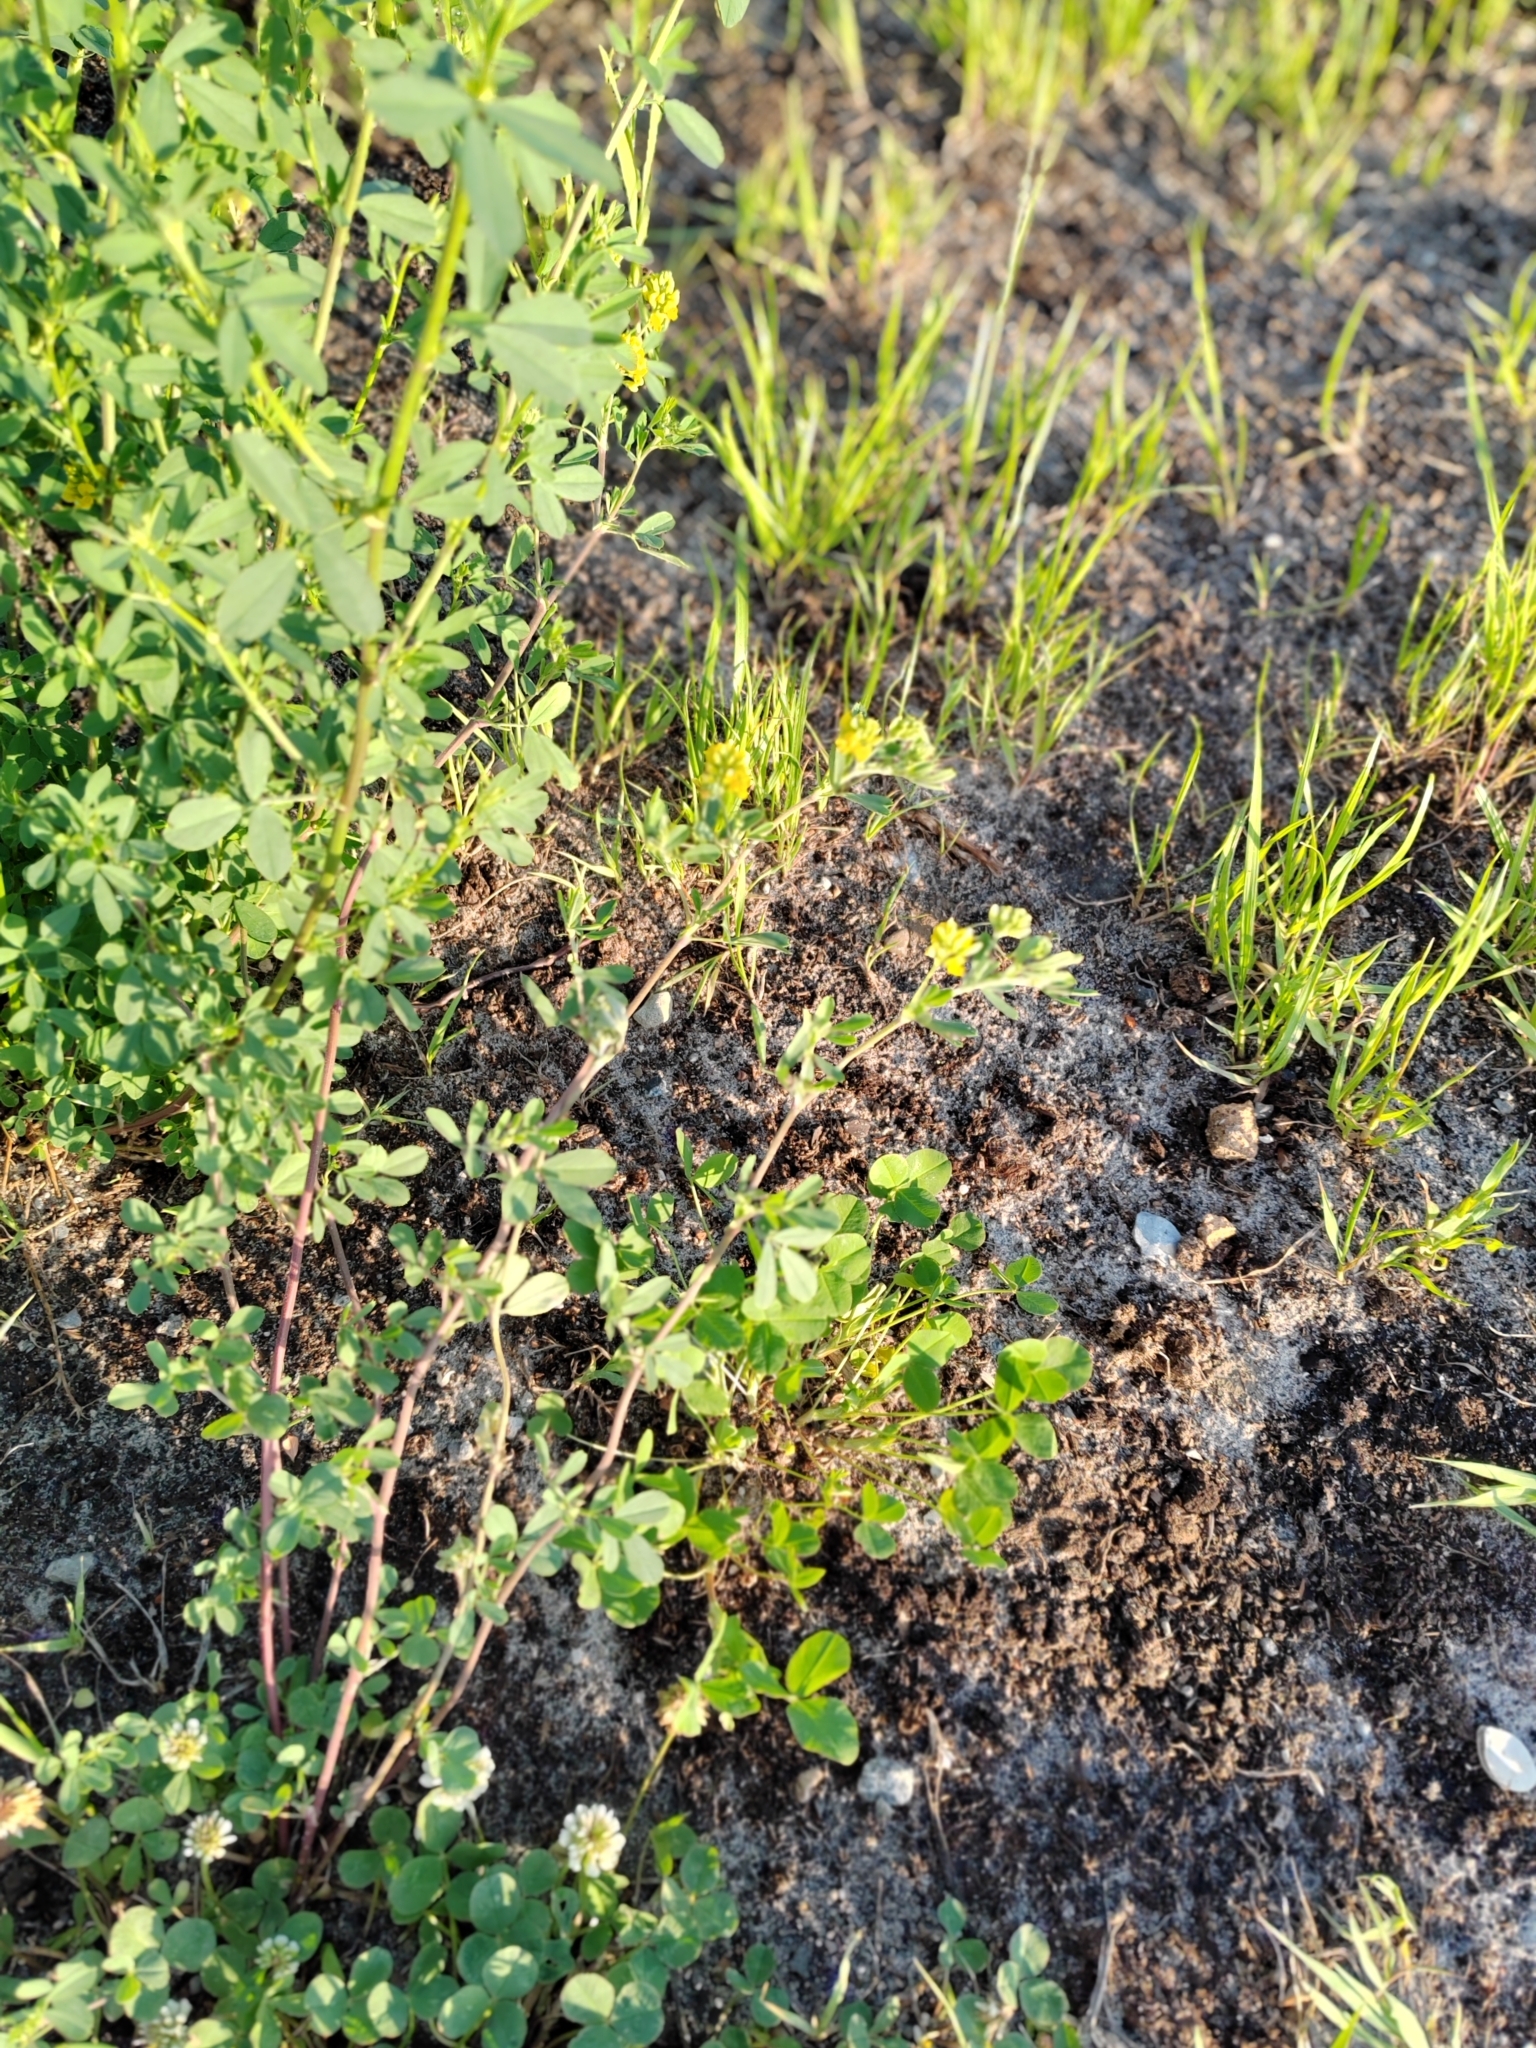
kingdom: Plantae
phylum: Tracheophyta
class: Magnoliopsida
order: Fabales
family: Fabaceae
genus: Medicago
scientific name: Medicago falcata
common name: Sickle medick
